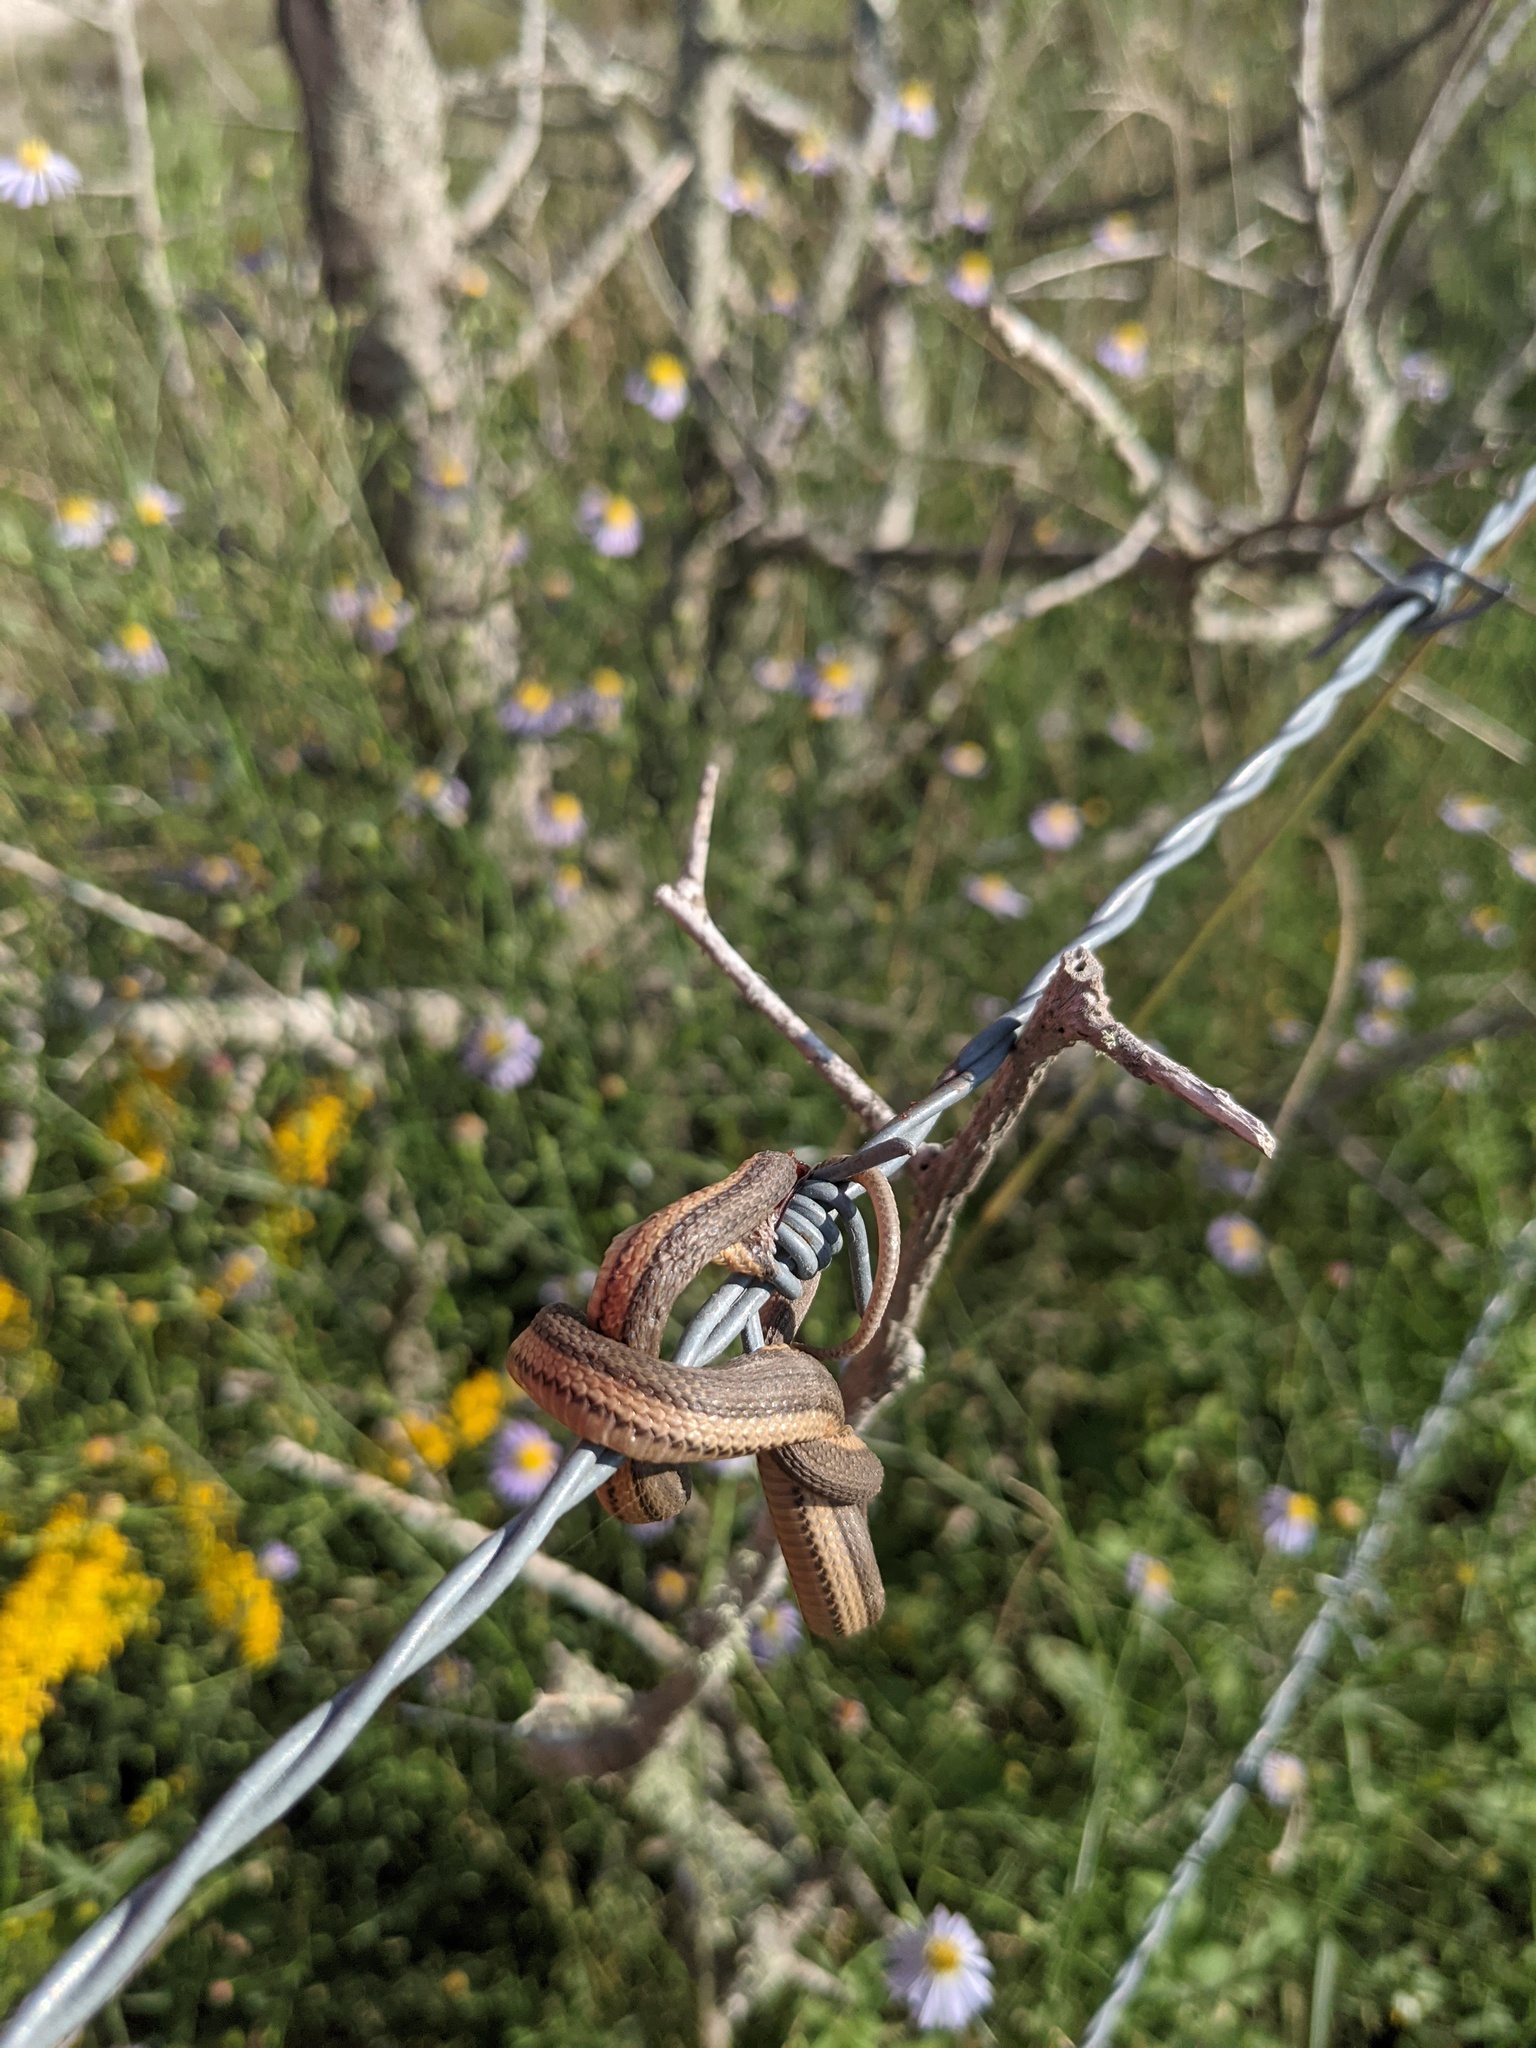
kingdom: Animalia
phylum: Chordata
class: Squamata
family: Colubridae
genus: Regina
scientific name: Regina grahamii
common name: Graham's crayfish snake
